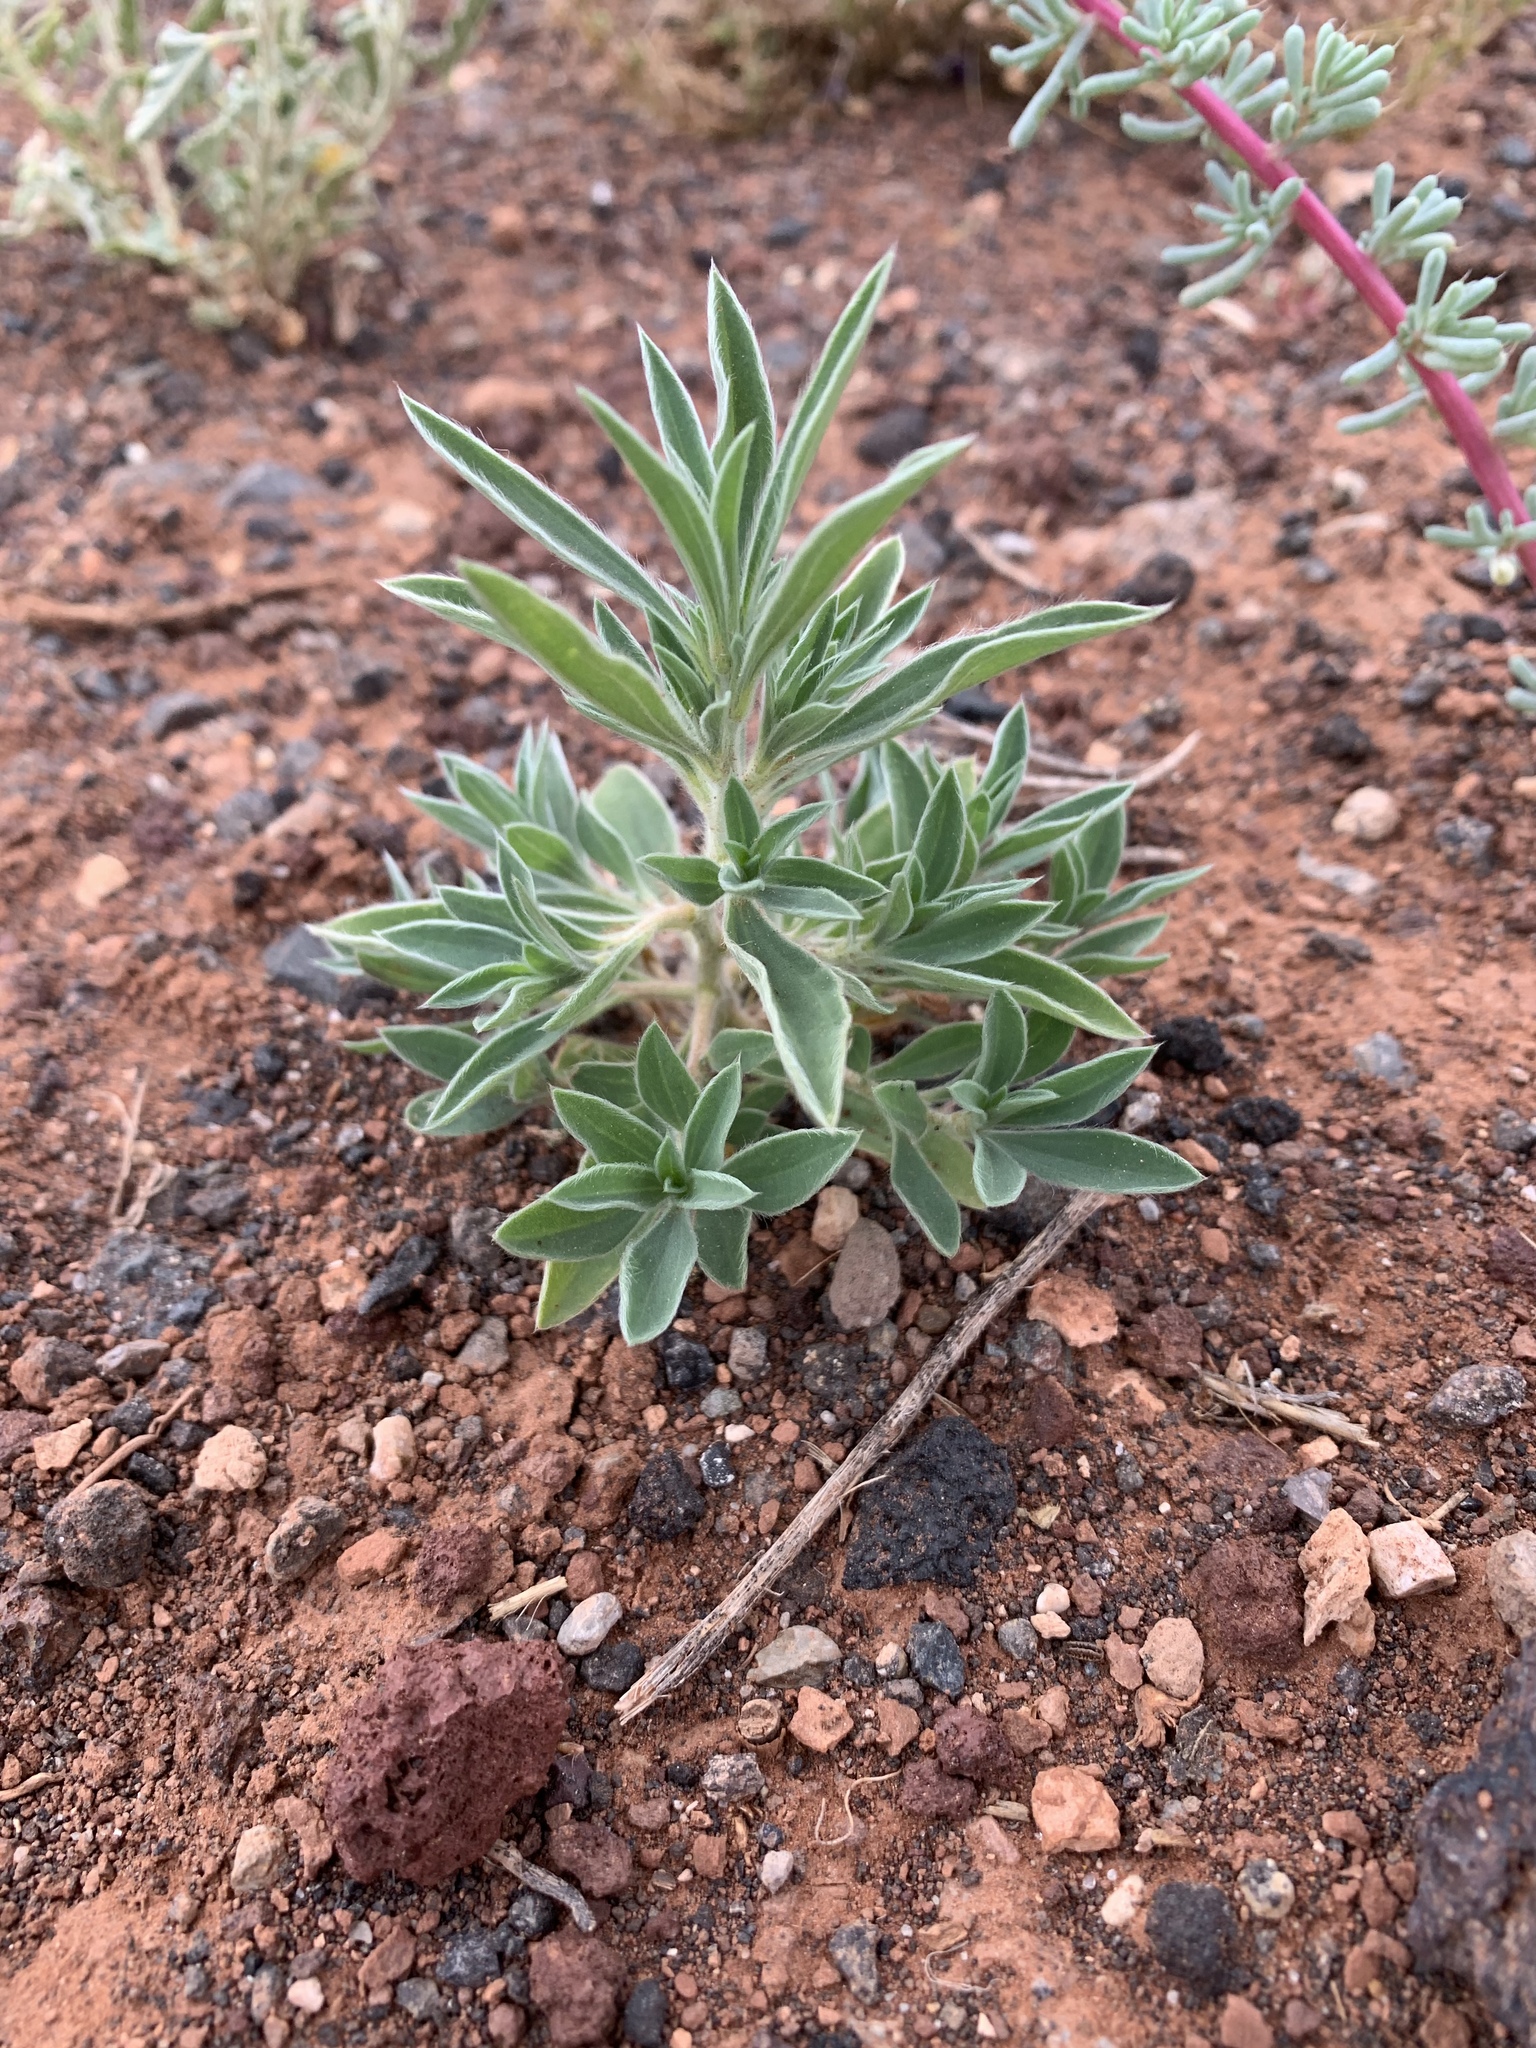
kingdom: Plantae
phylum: Tracheophyta
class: Magnoliopsida
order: Caryophyllales
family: Amaranthaceae
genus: Bassia
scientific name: Bassia scoparia
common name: Belvedere
